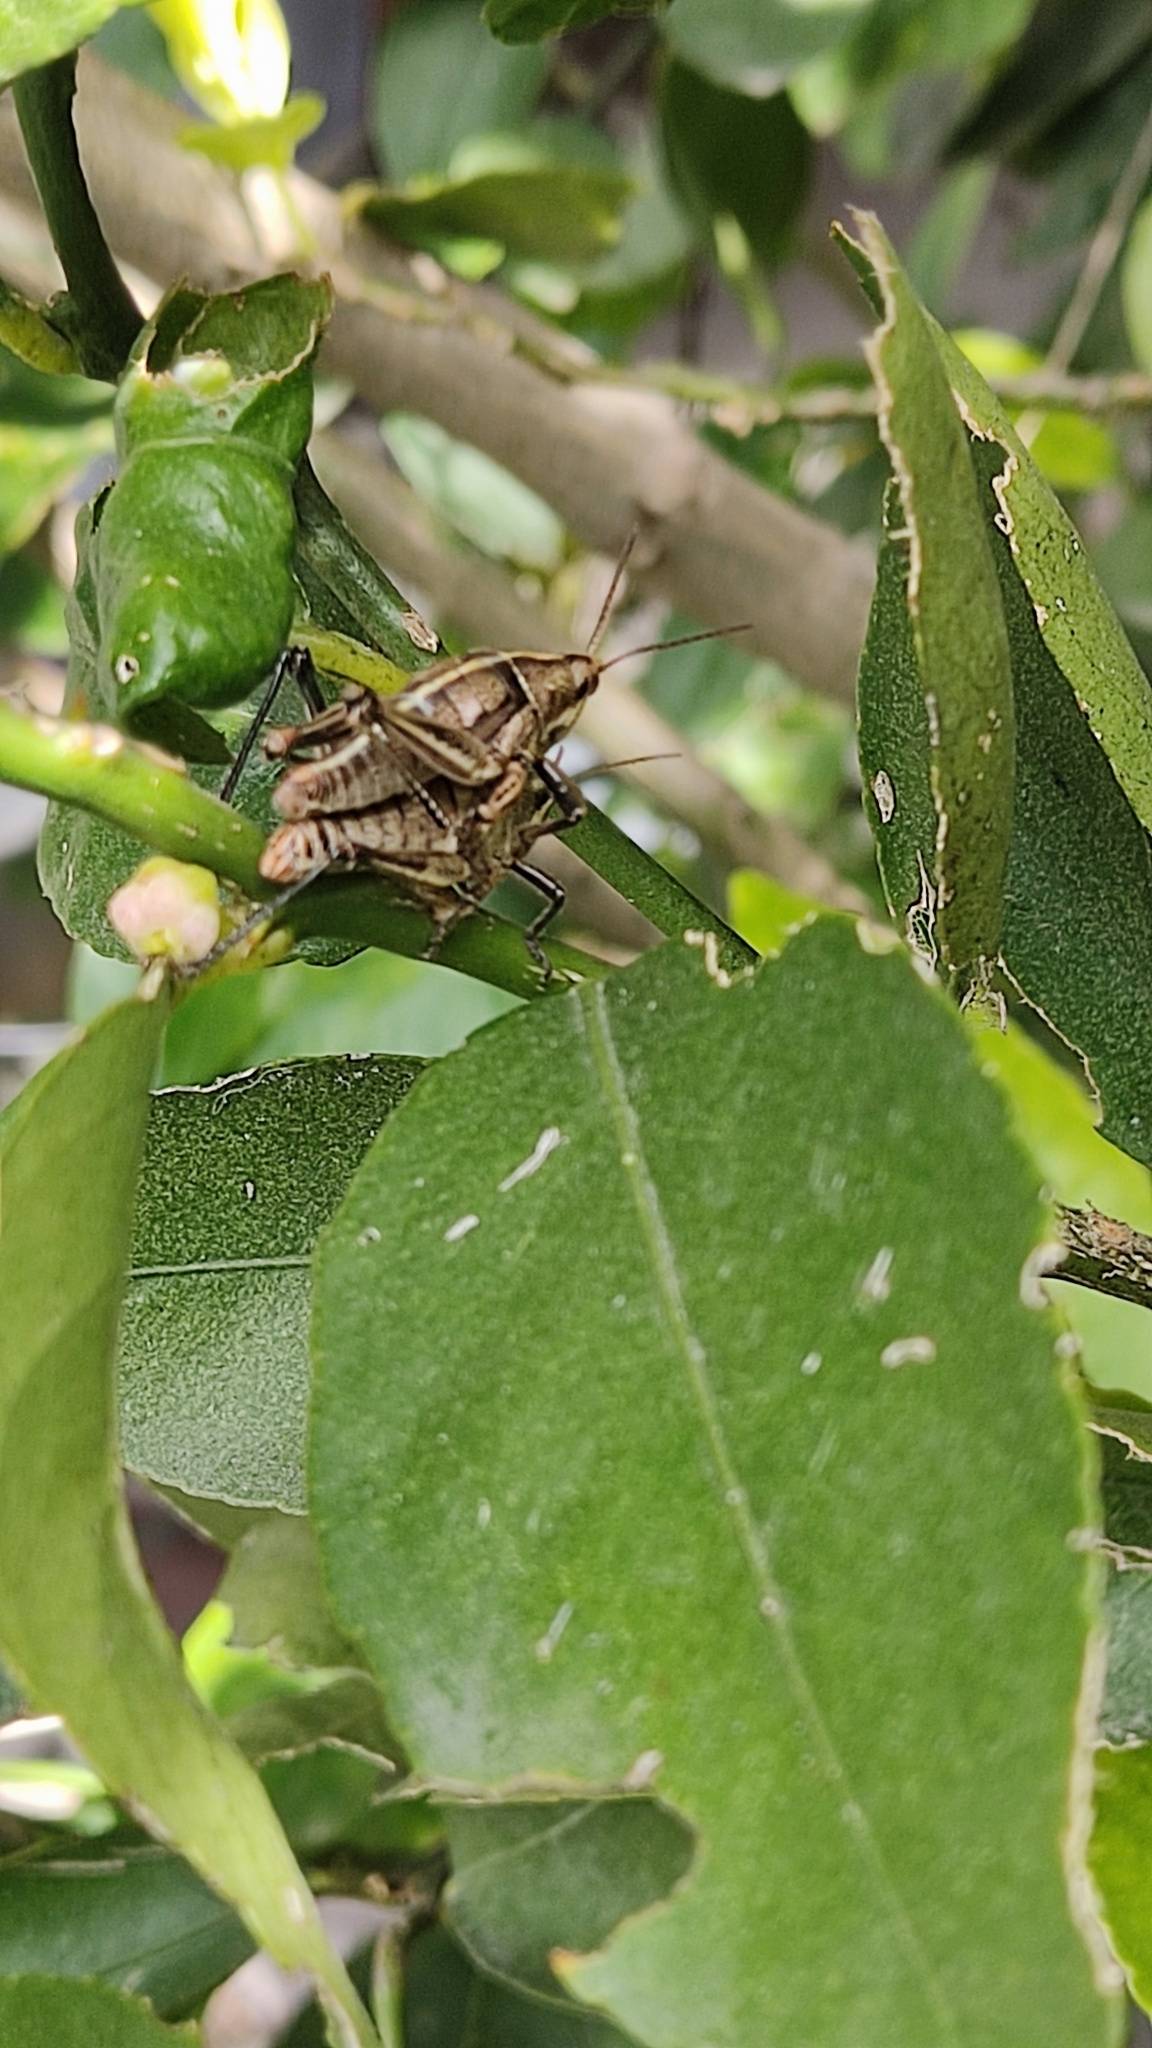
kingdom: Animalia
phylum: Arthropoda
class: Insecta
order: Orthoptera
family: Pyrgomorphidae
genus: Sphenarium
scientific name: Sphenarium purpurascens
